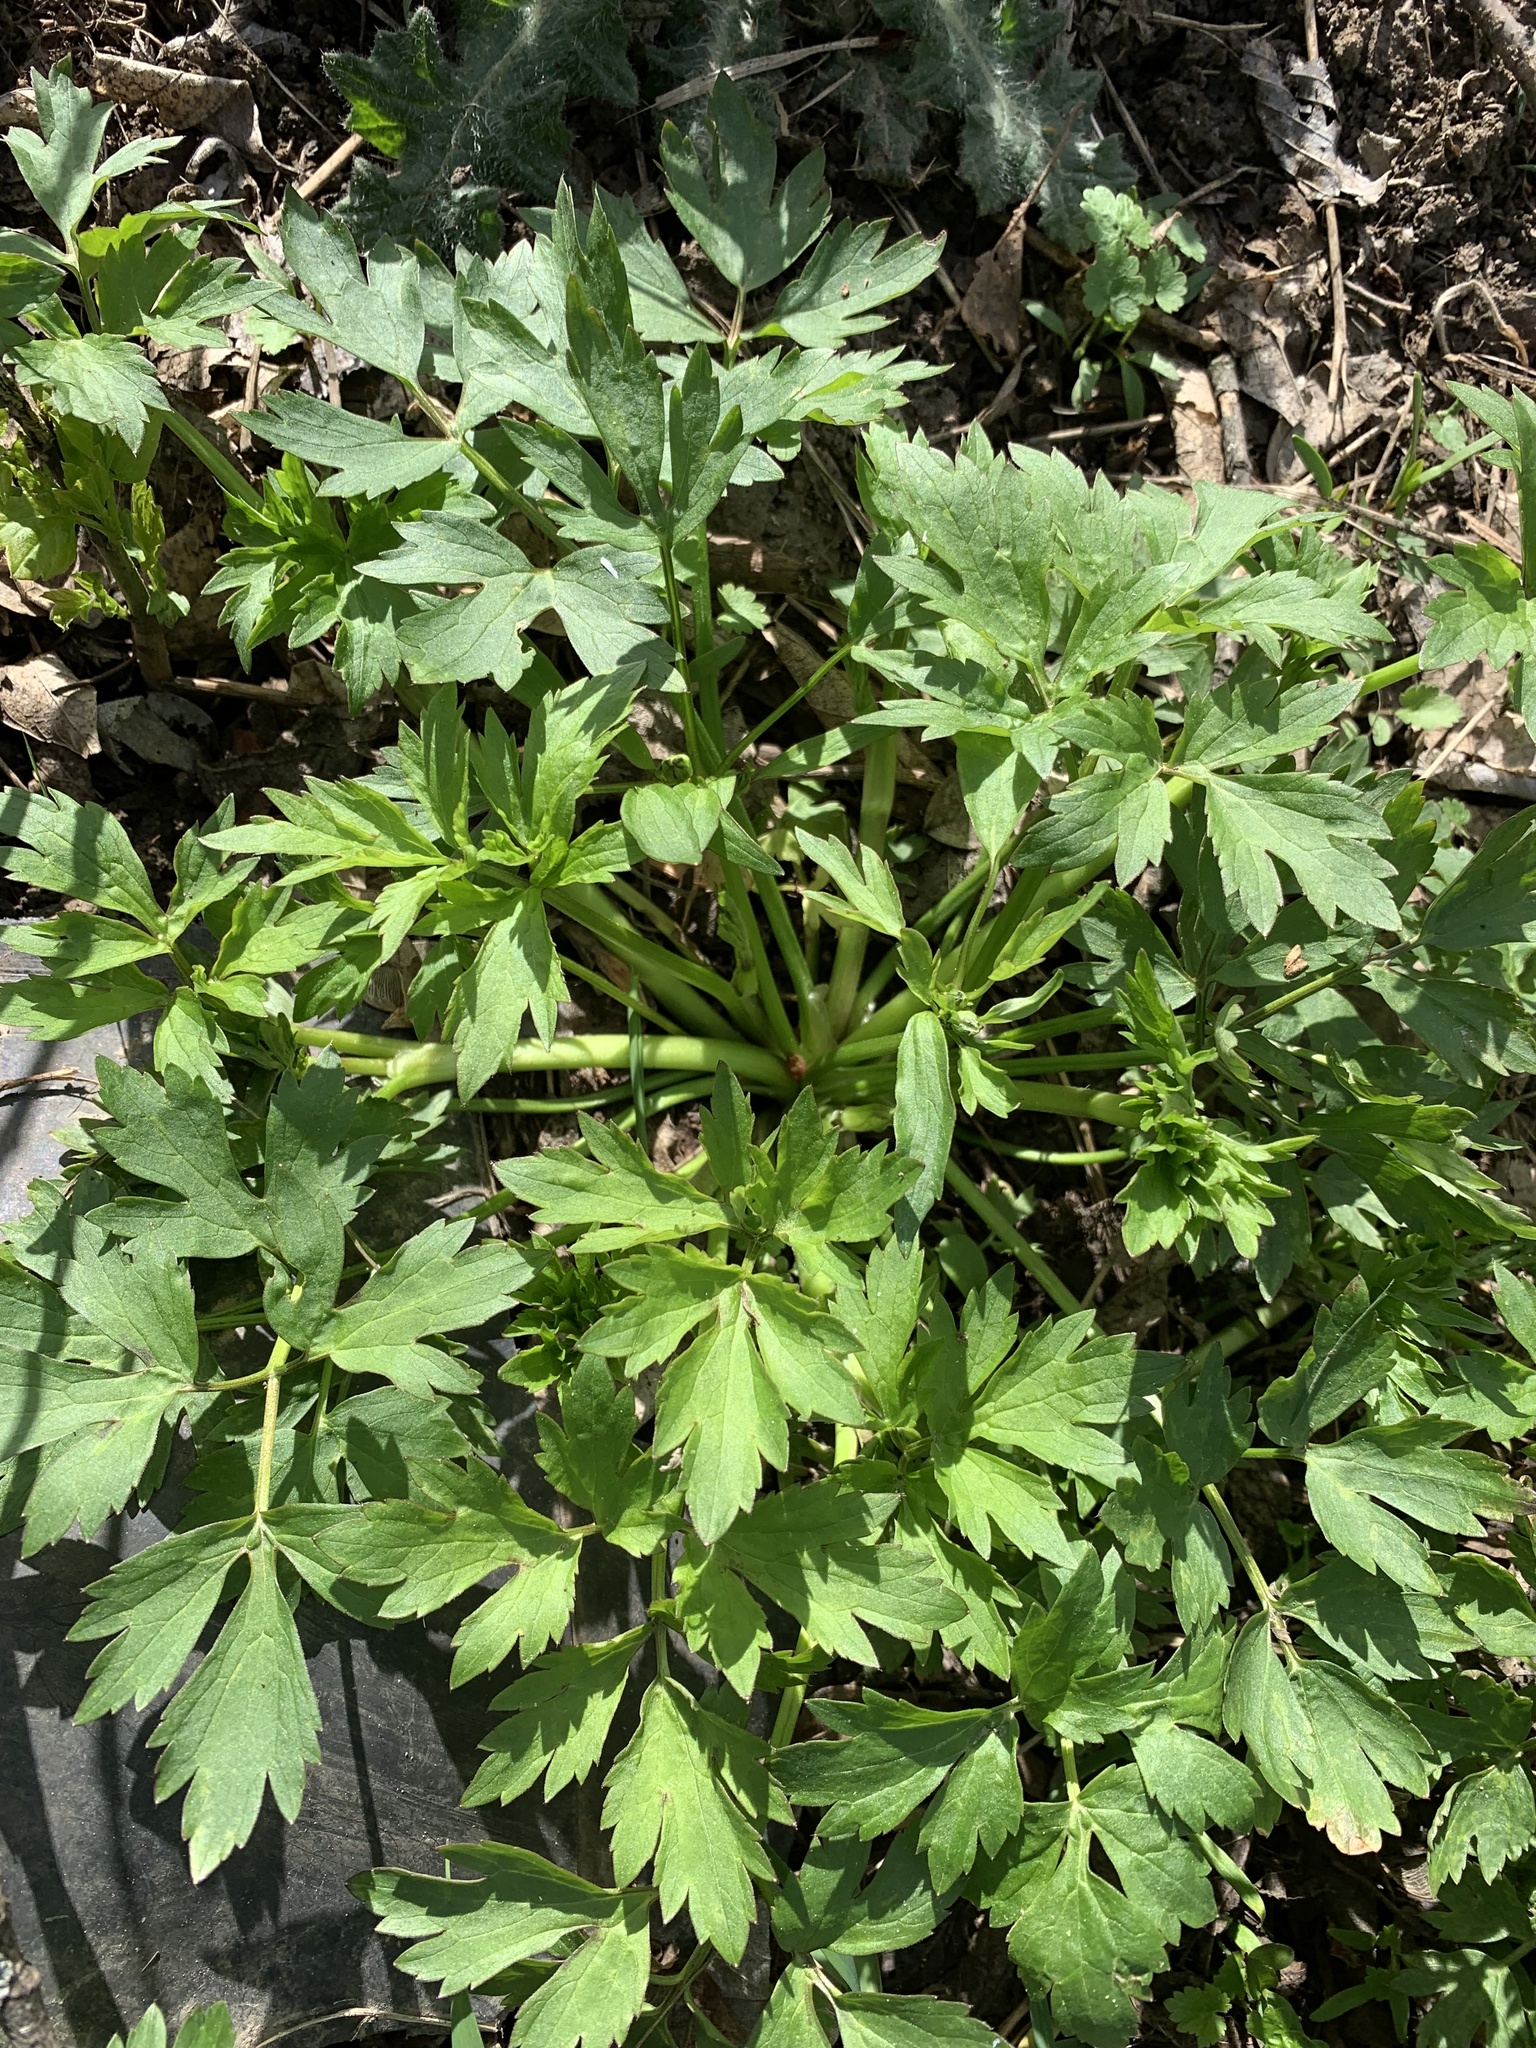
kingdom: Plantae
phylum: Tracheophyta
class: Magnoliopsida
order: Ranunculales
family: Ranunculaceae
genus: Ranunculus
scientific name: Ranunculus repens
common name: Creeping buttercup
